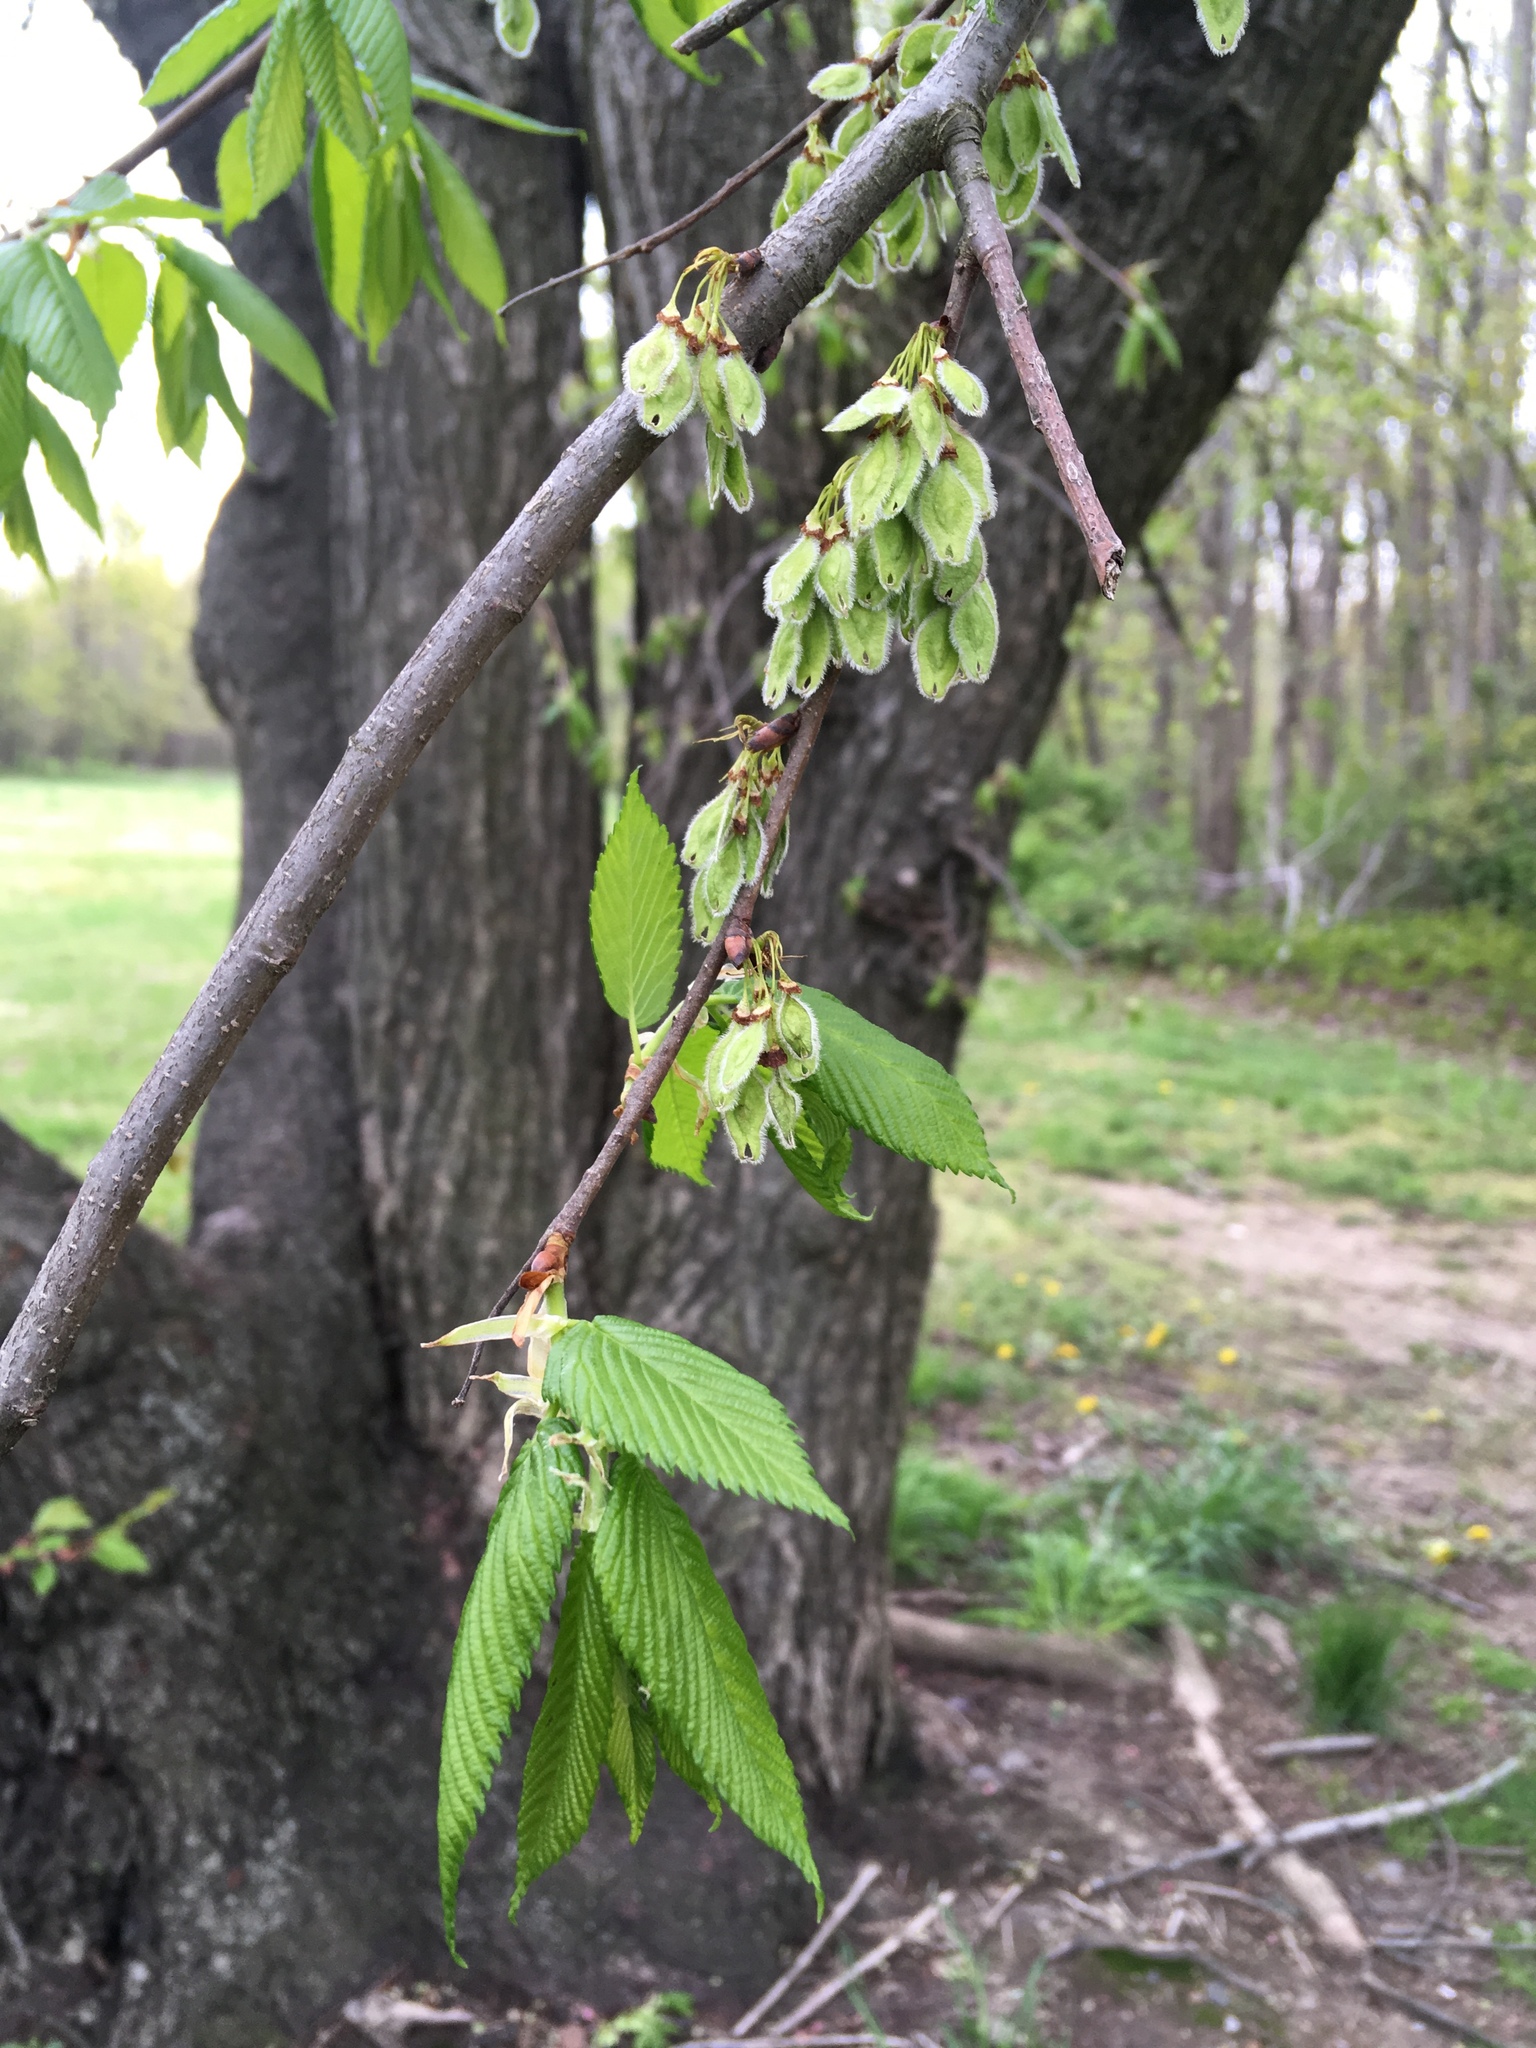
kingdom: Plantae
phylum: Tracheophyta
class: Magnoliopsida
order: Rosales
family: Ulmaceae
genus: Ulmus
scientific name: Ulmus americana
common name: American elm
